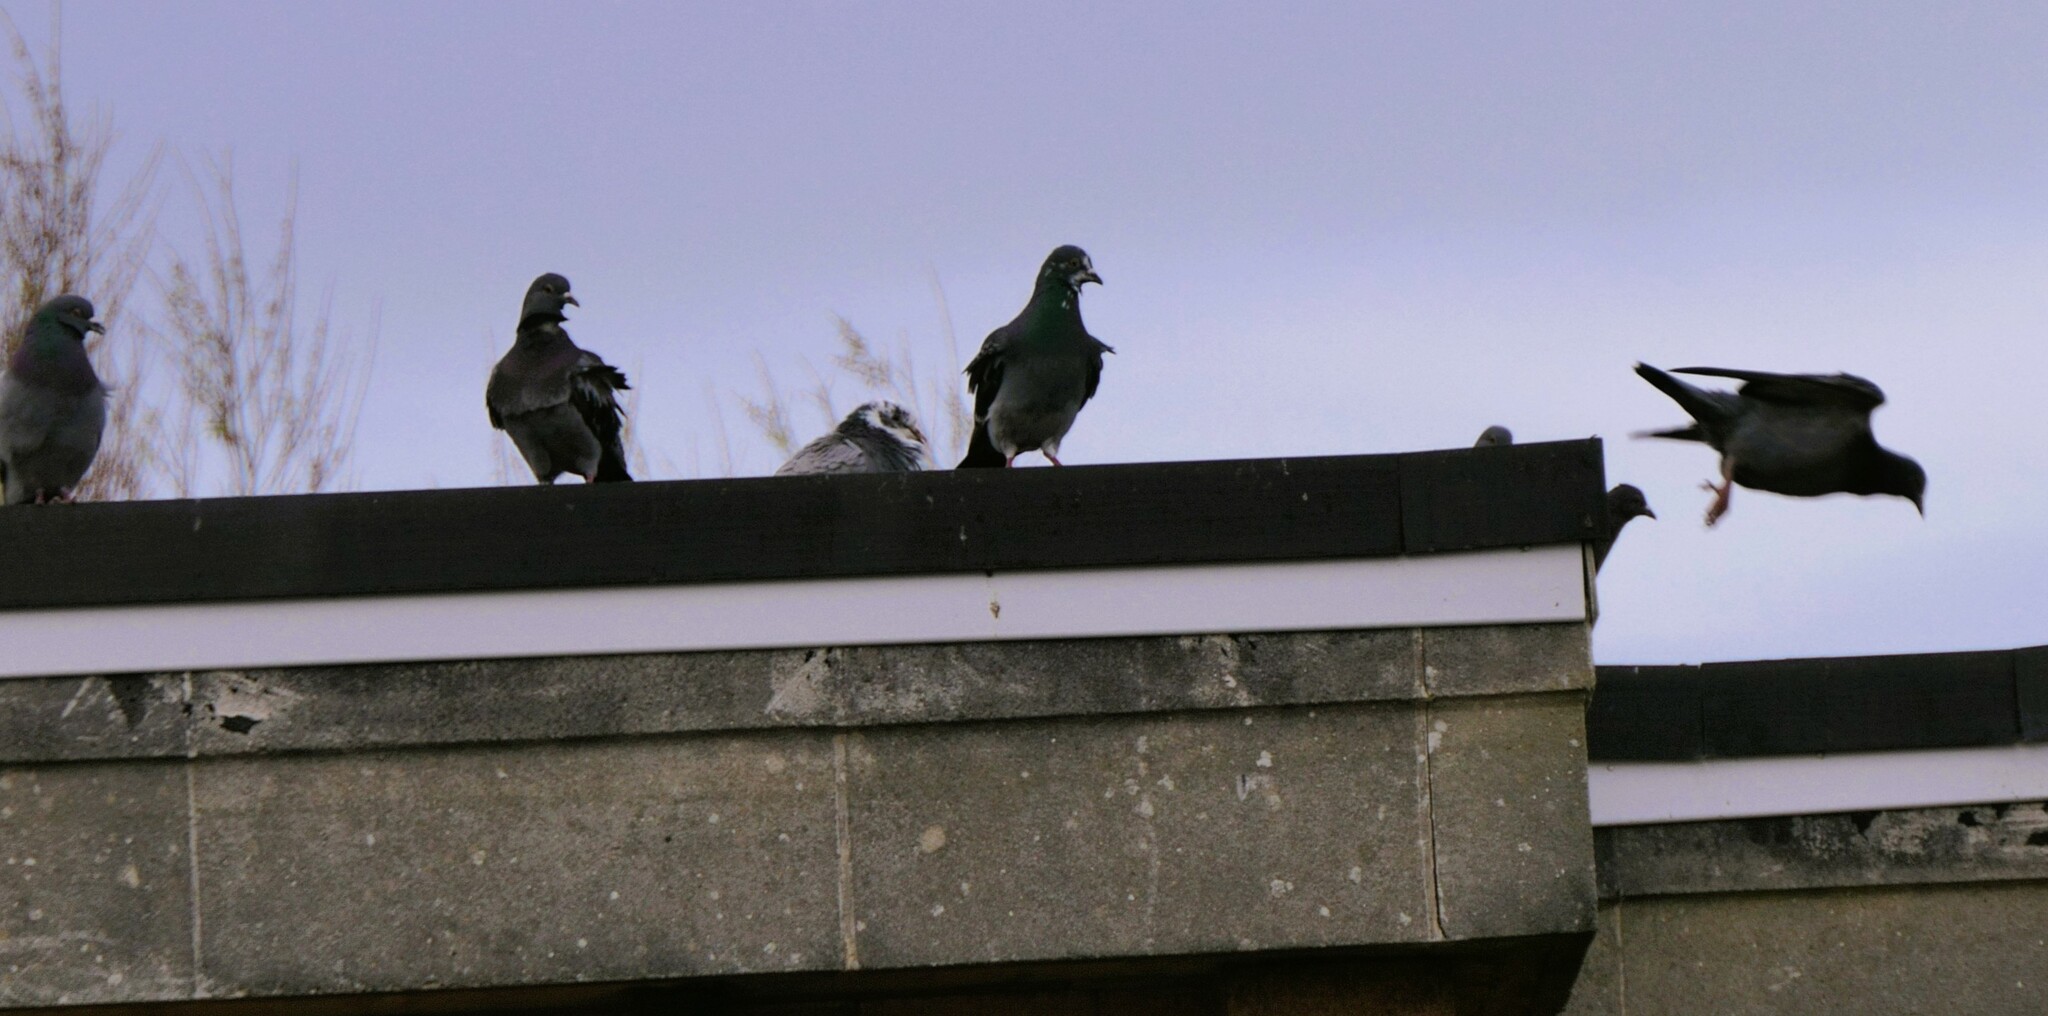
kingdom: Animalia
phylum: Chordata
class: Aves
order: Columbiformes
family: Columbidae
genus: Columba
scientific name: Columba livia
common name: Rock pigeon
